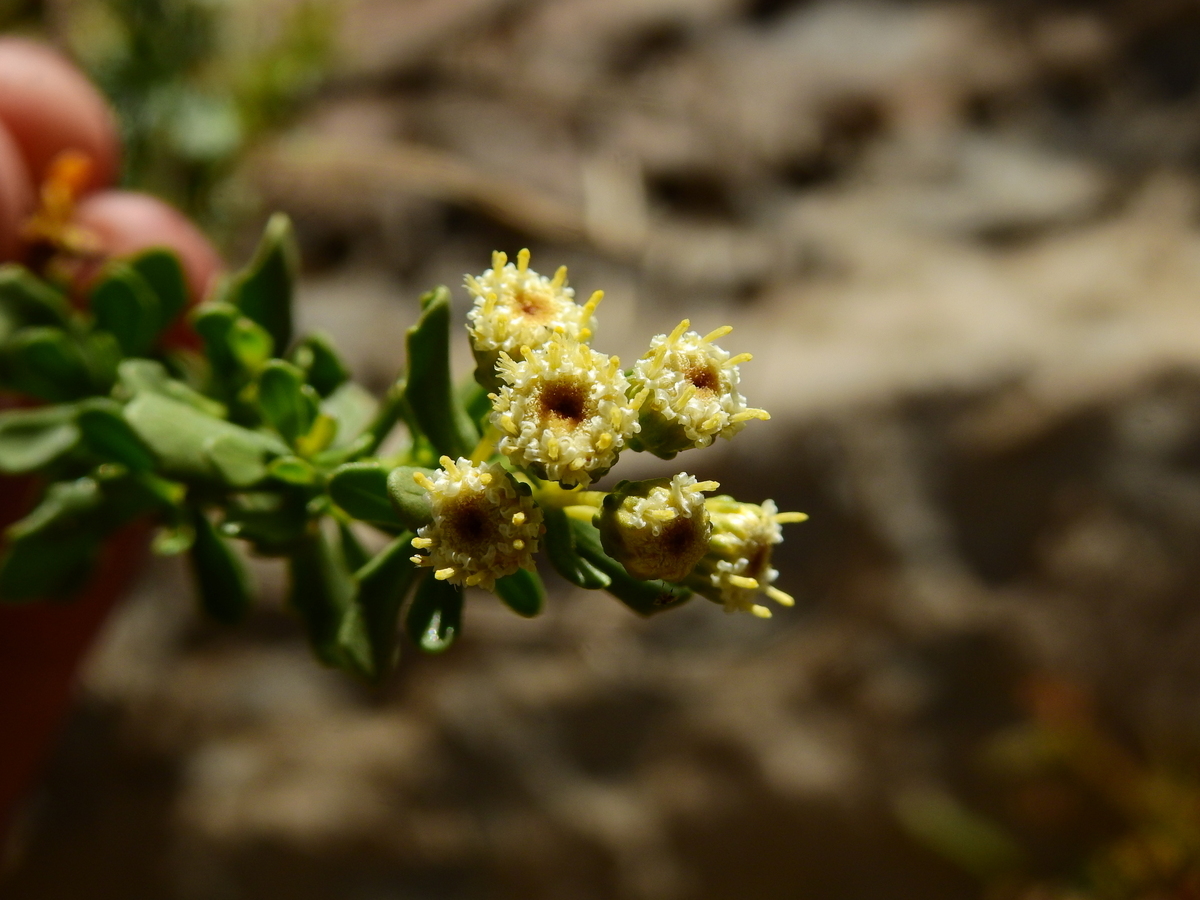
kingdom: Plantae
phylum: Tracheophyta
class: Magnoliopsida
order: Asterales
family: Asteraceae
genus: Baccharis
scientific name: Baccharis neaei
